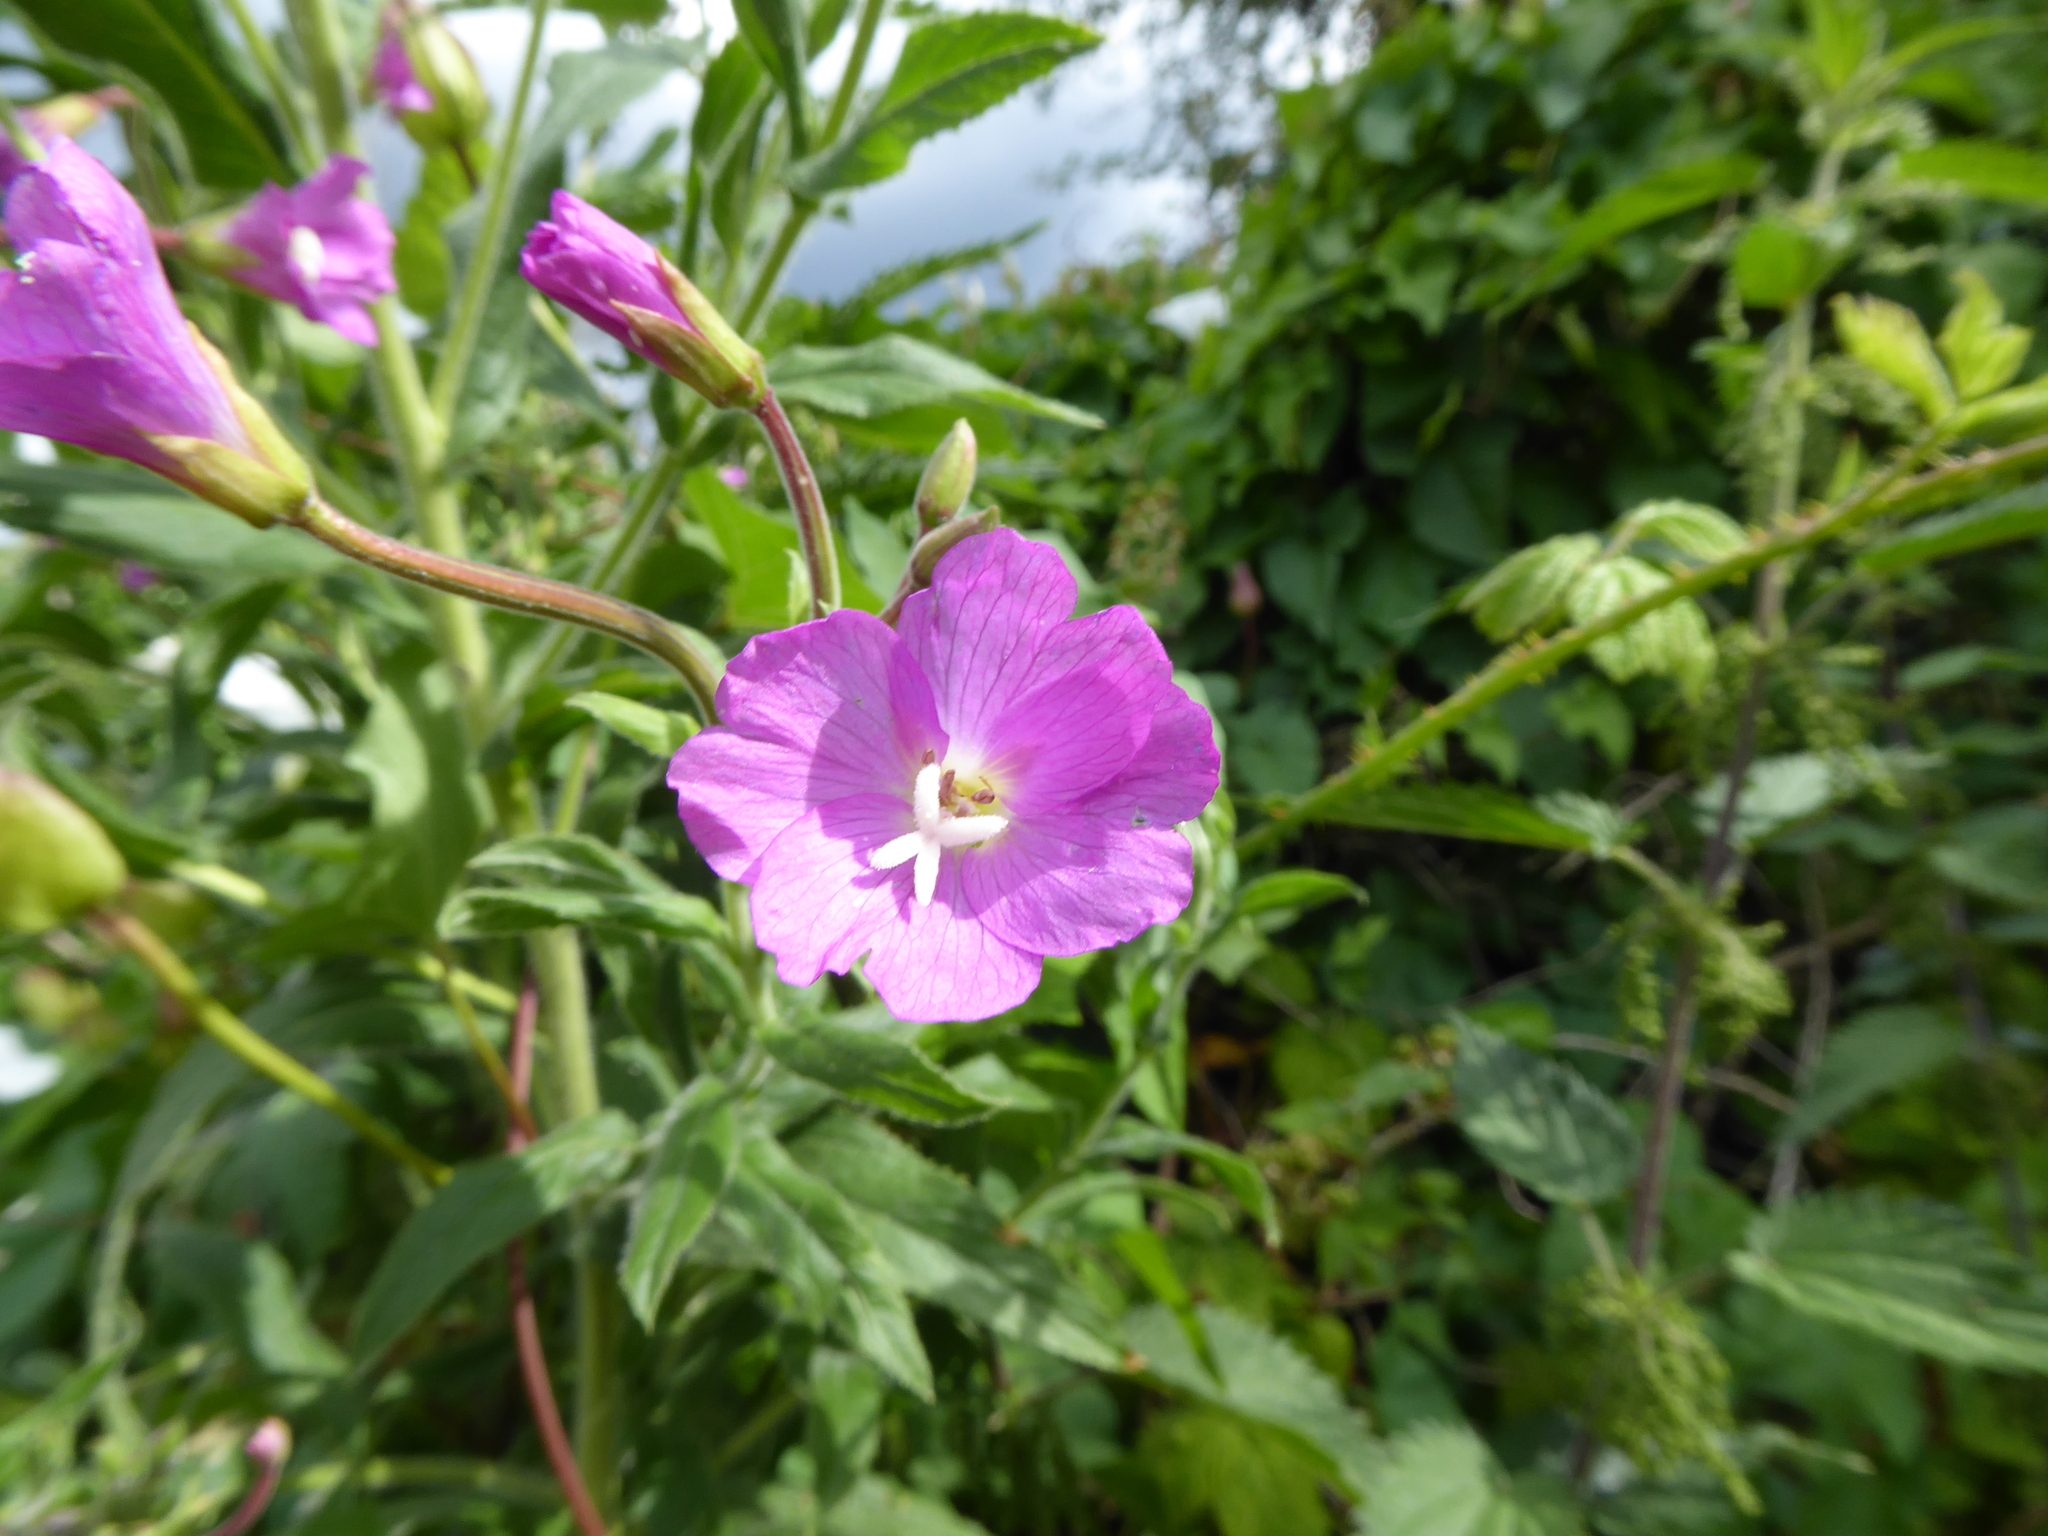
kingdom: Plantae
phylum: Tracheophyta
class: Magnoliopsida
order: Myrtales
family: Onagraceae
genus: Epilobium
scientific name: Epilobium hirsutum
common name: Great willowherb
